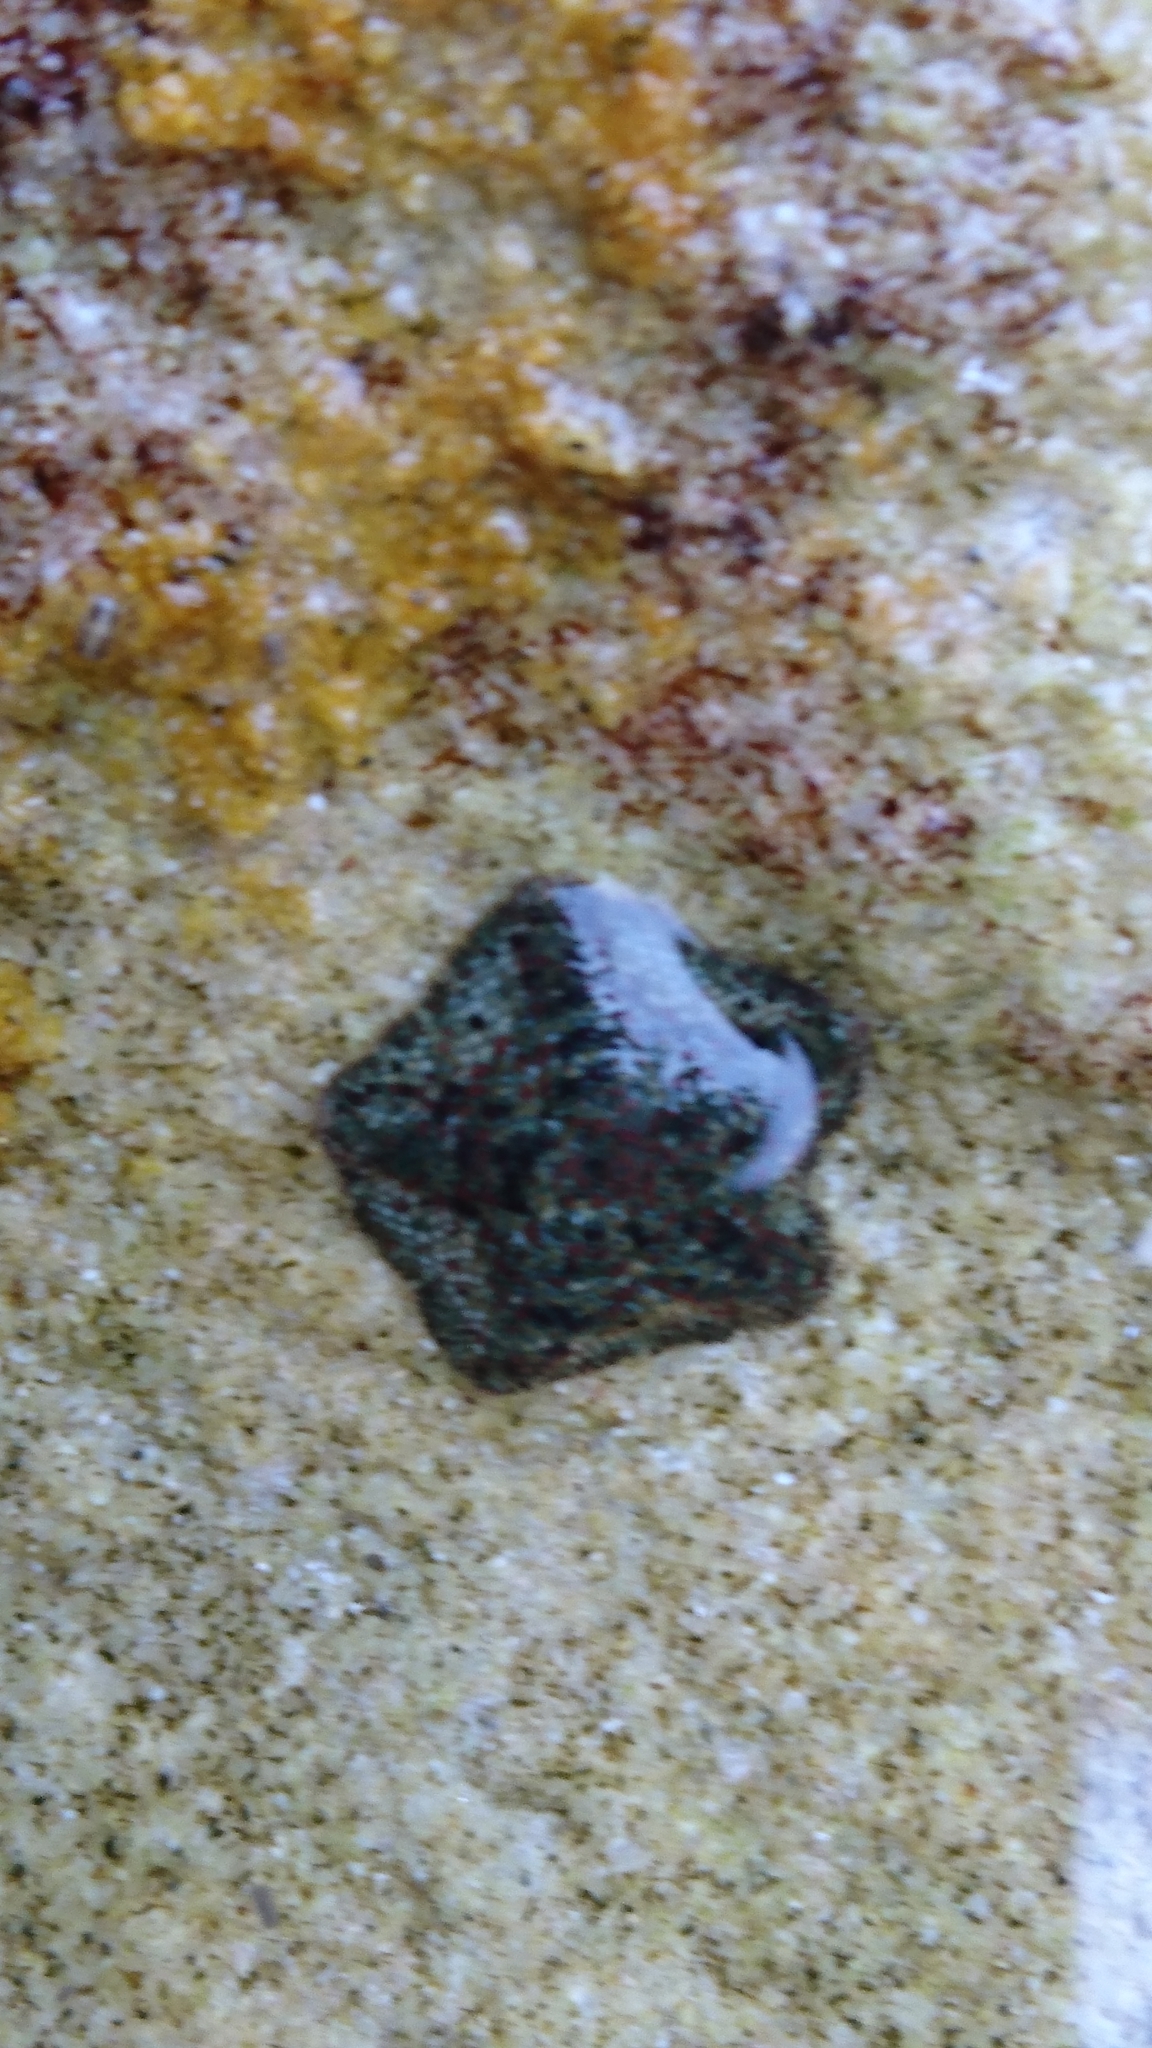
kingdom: Animalia
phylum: Echinodermata
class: Asteroidea
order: Valvatida
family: Asterinidae
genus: Parvulastra
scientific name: Parvulastra exigua
